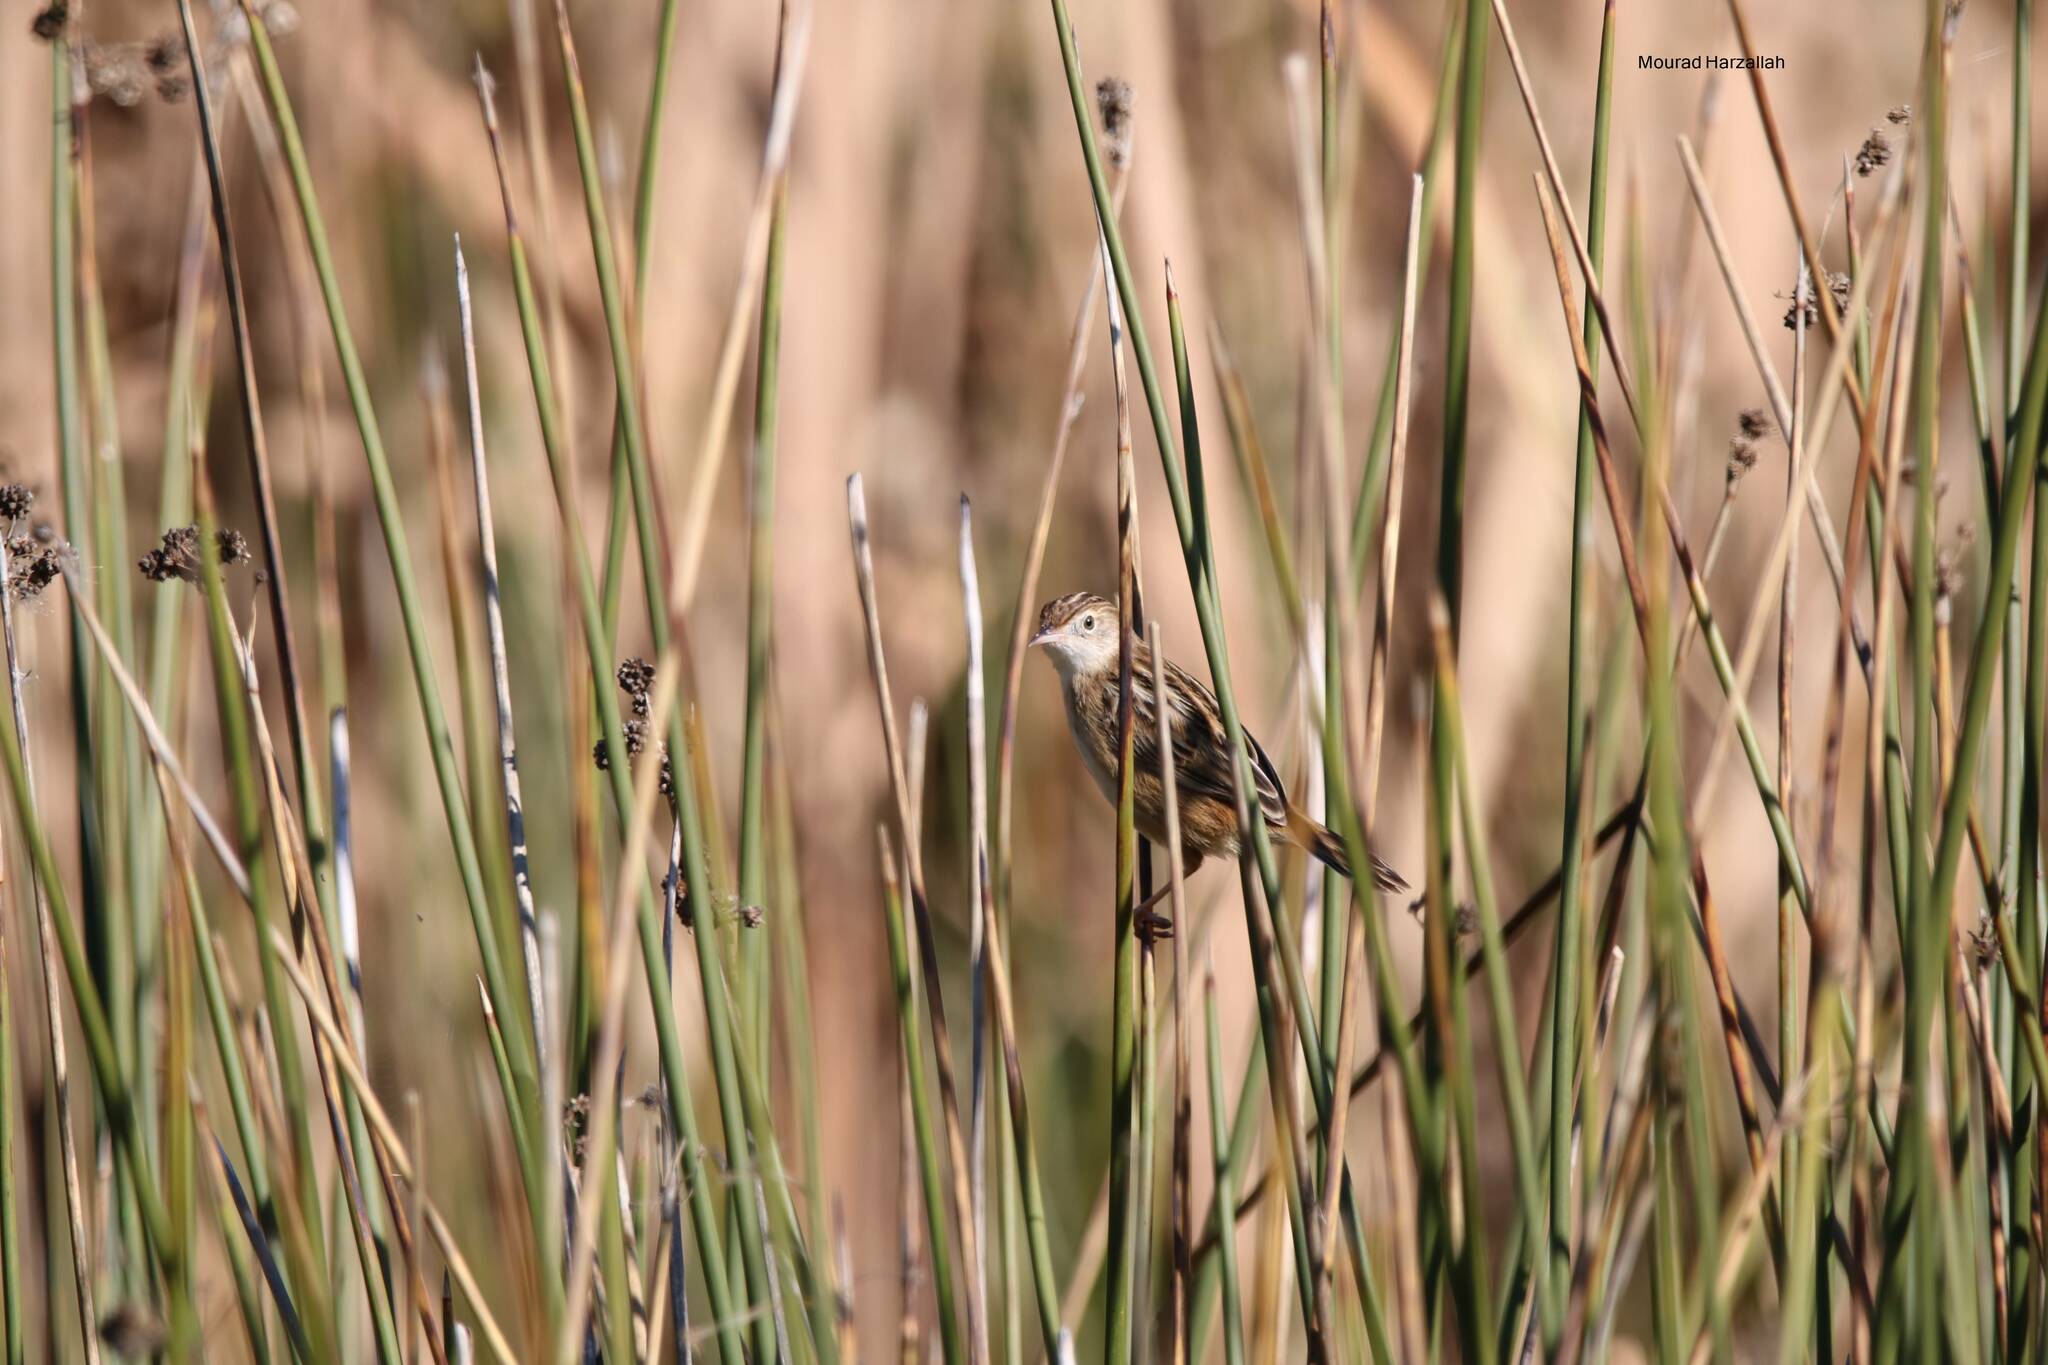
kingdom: Animalia
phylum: Chordata
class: Aves
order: Passeriformes
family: Cisticolidae
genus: Cisticola
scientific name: Cisticola juncidis
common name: Zitting cisticola
